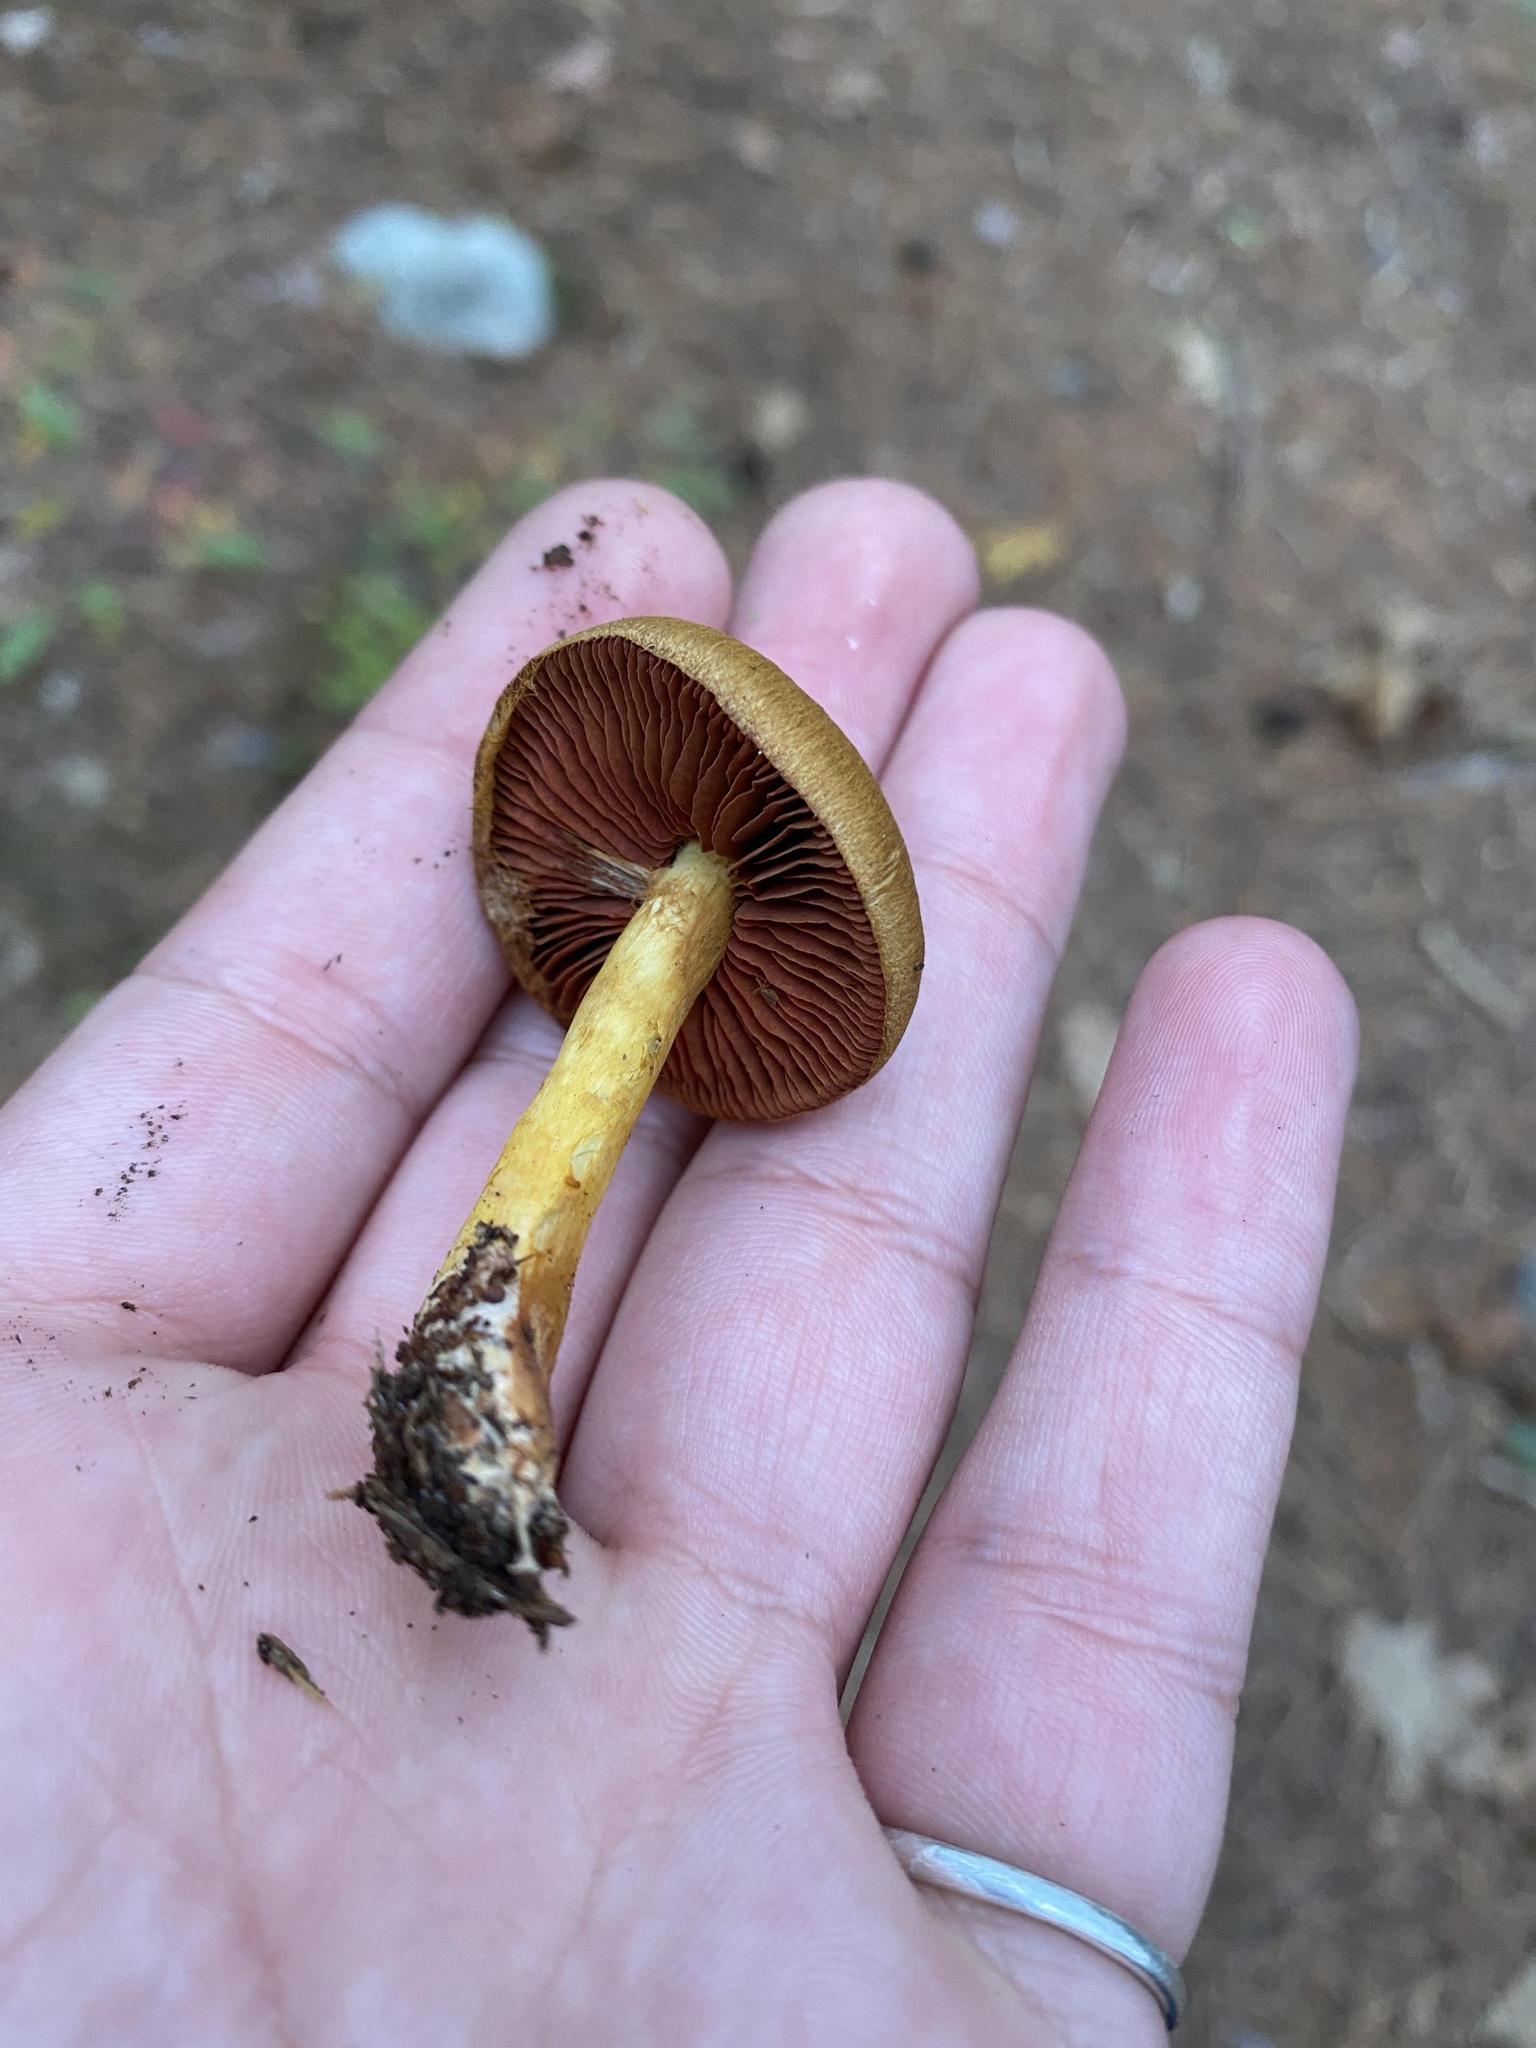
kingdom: Fungi
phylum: Basidiomycota
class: Agaricomycetes
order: Agaricales
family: Cortinariaceae
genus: Cortinarius
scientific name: Cortinarius semisanguineus
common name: Surprise webcap
